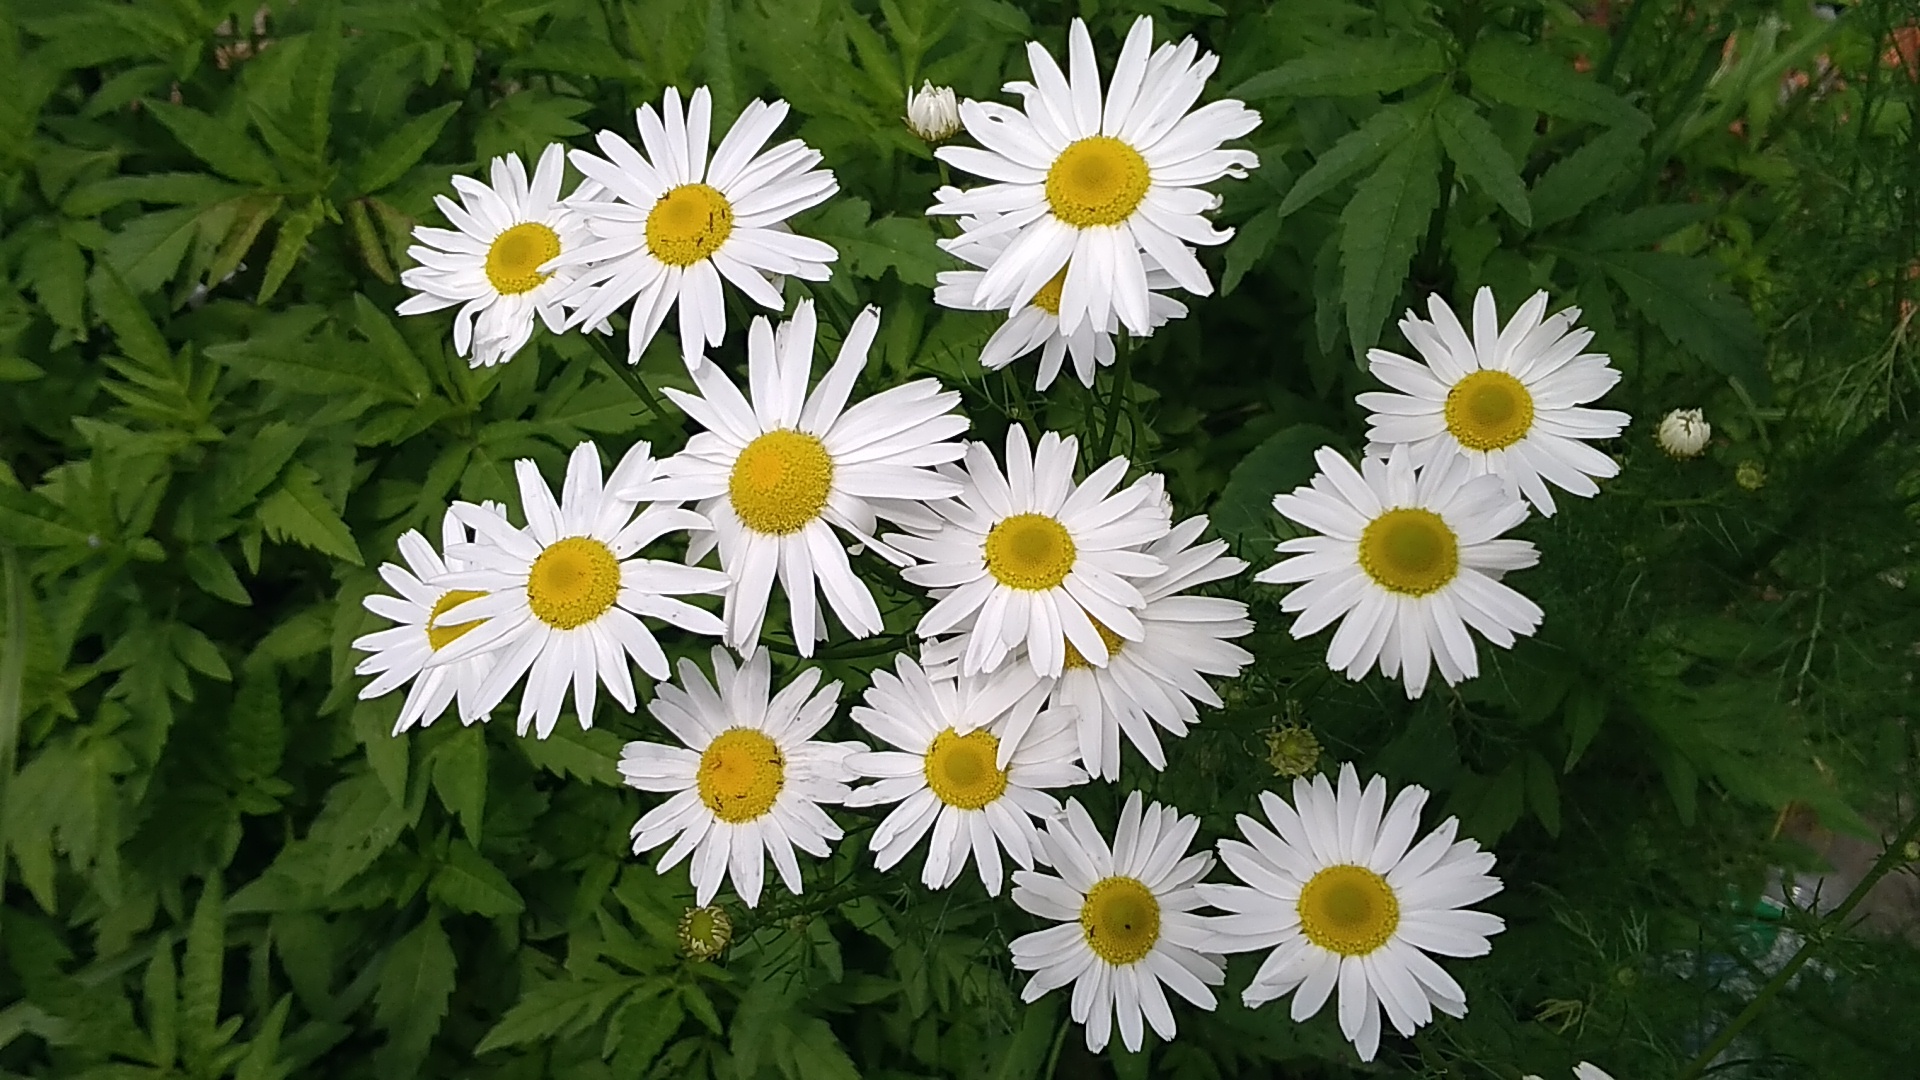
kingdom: Plantae
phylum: Tracheophyta
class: Magnoliopsida
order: Asterales
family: Asteraceae
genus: Tripleurospermum
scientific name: Tripleurospermum inodorum
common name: Scentless mayweed
